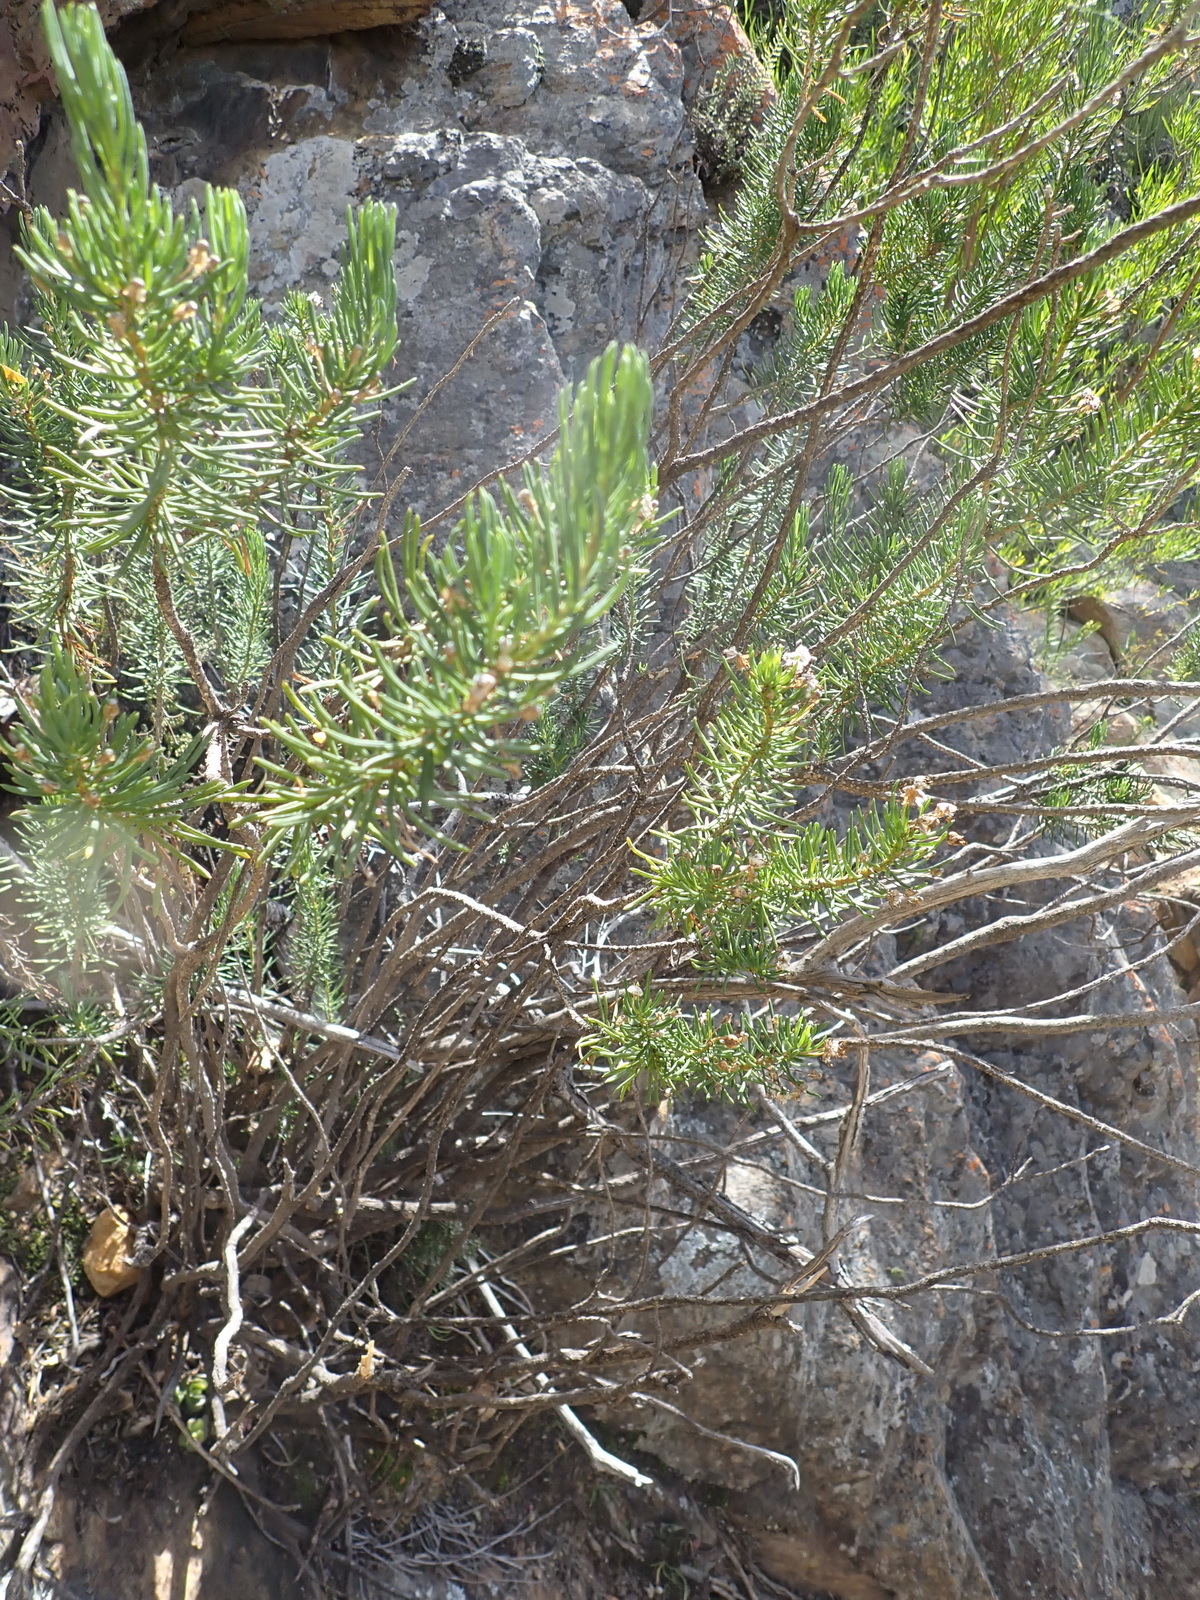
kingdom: Plantae
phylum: Tracheophyta
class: Magnoliopsida
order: Asterales
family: Asteraceae
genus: Euryops
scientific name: Euryops rehmannii
